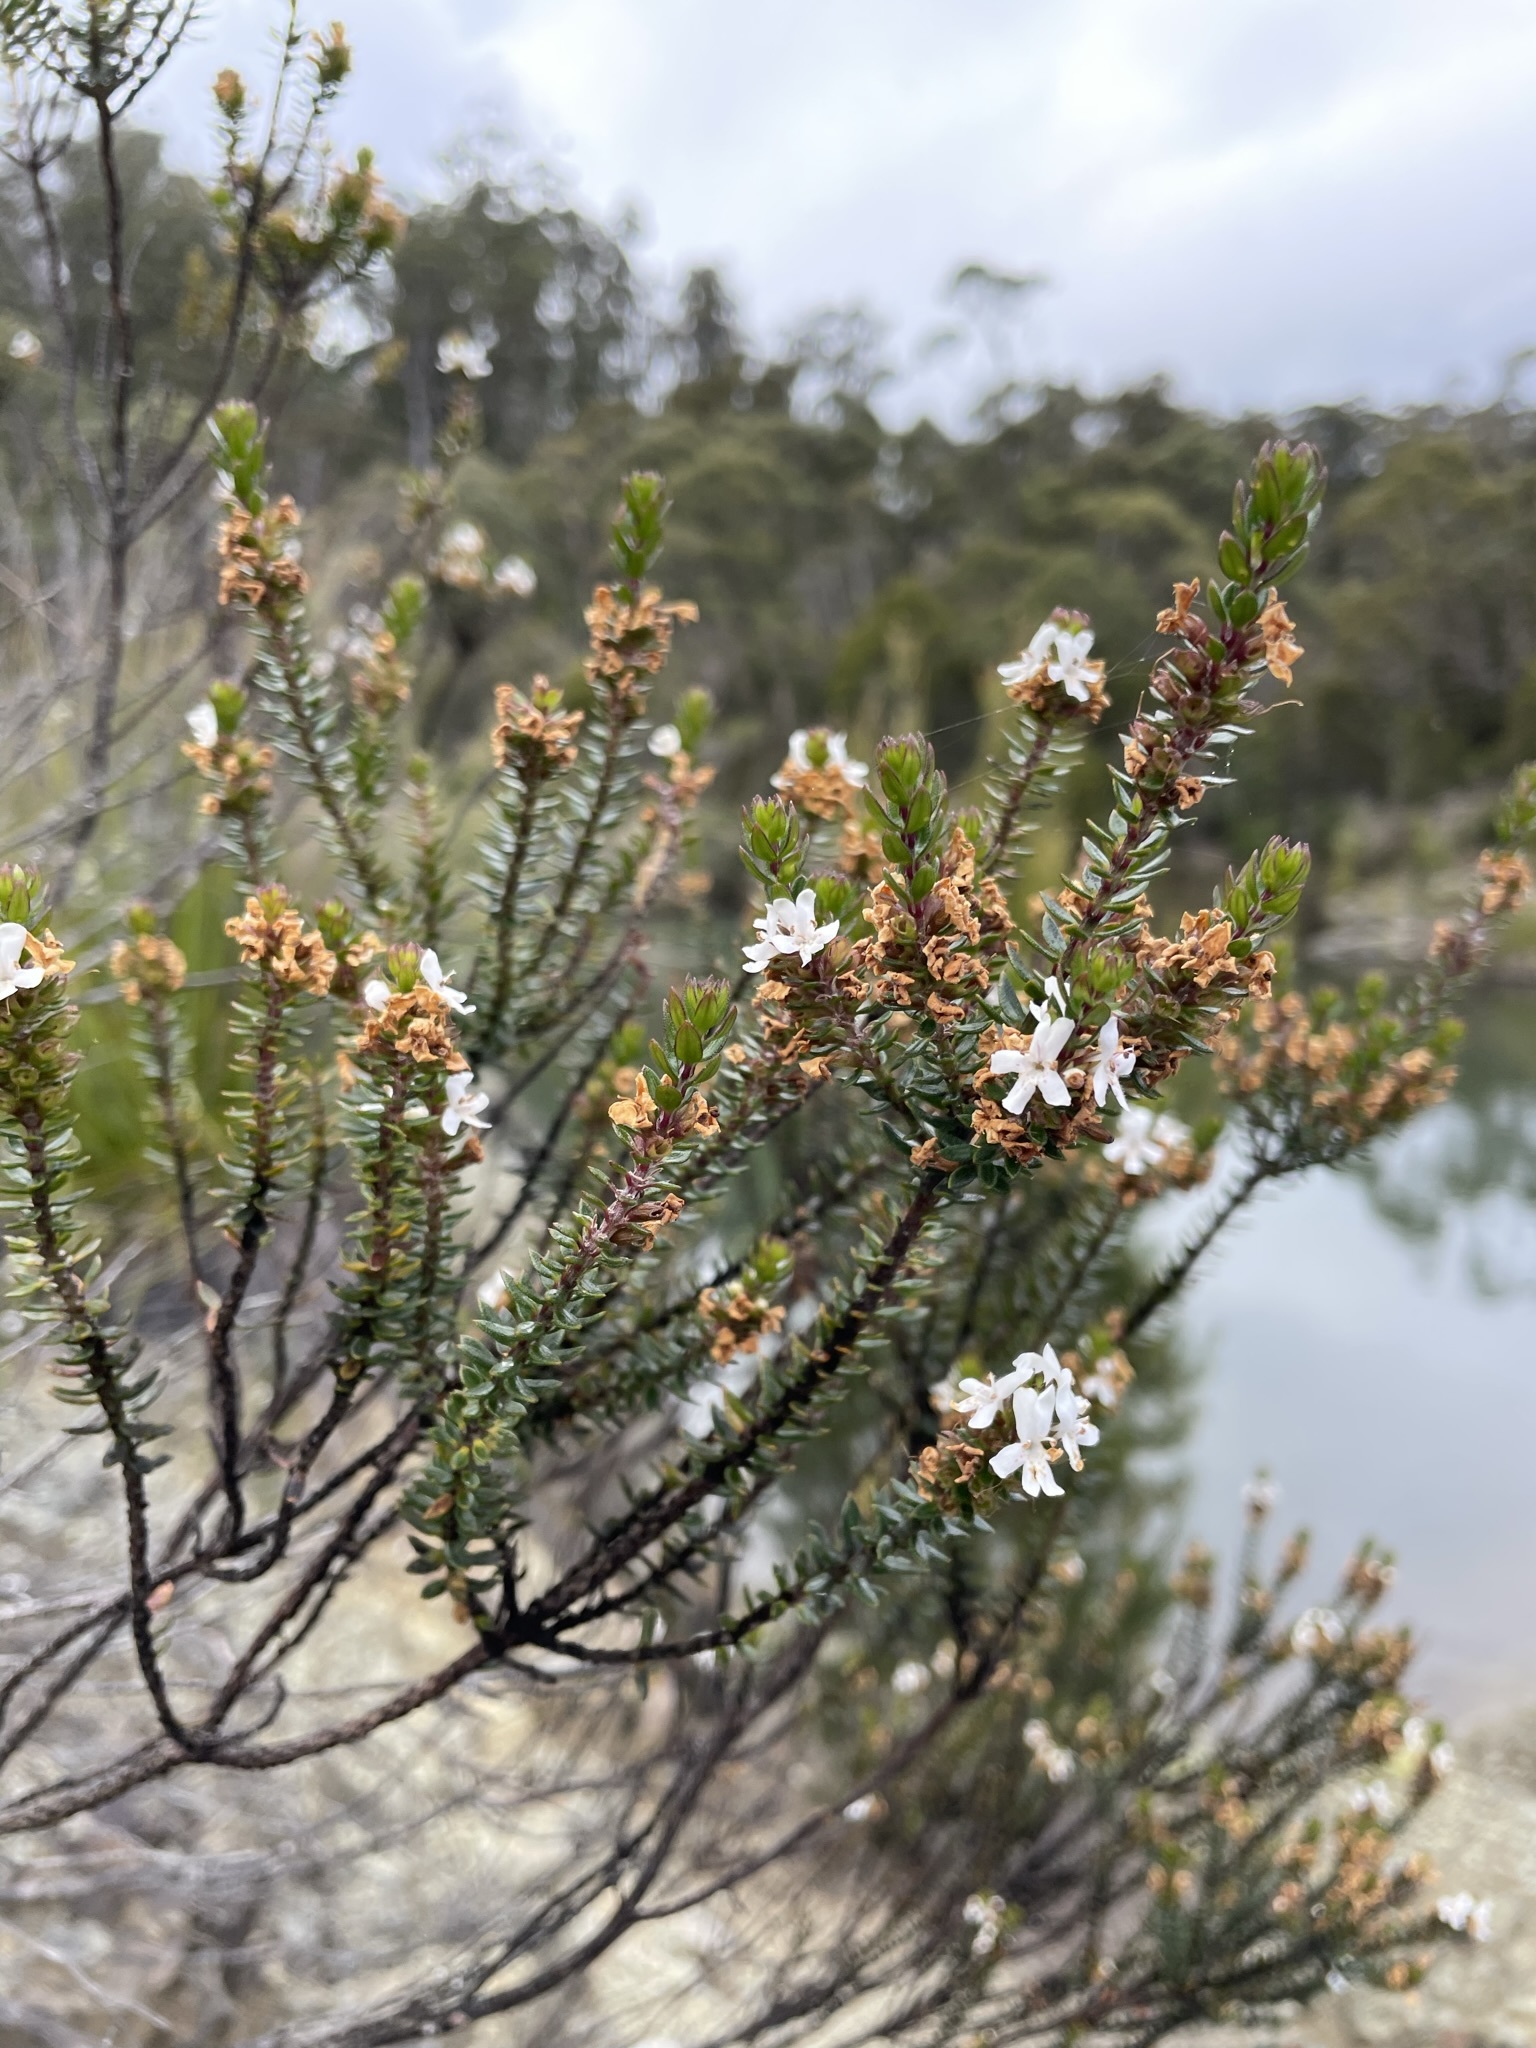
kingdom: Plantae
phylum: Tracheophyta
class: Magnoliopsida
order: Lamiales
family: Lamiaceae
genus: Westringia
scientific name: Westringia rubiifolia
